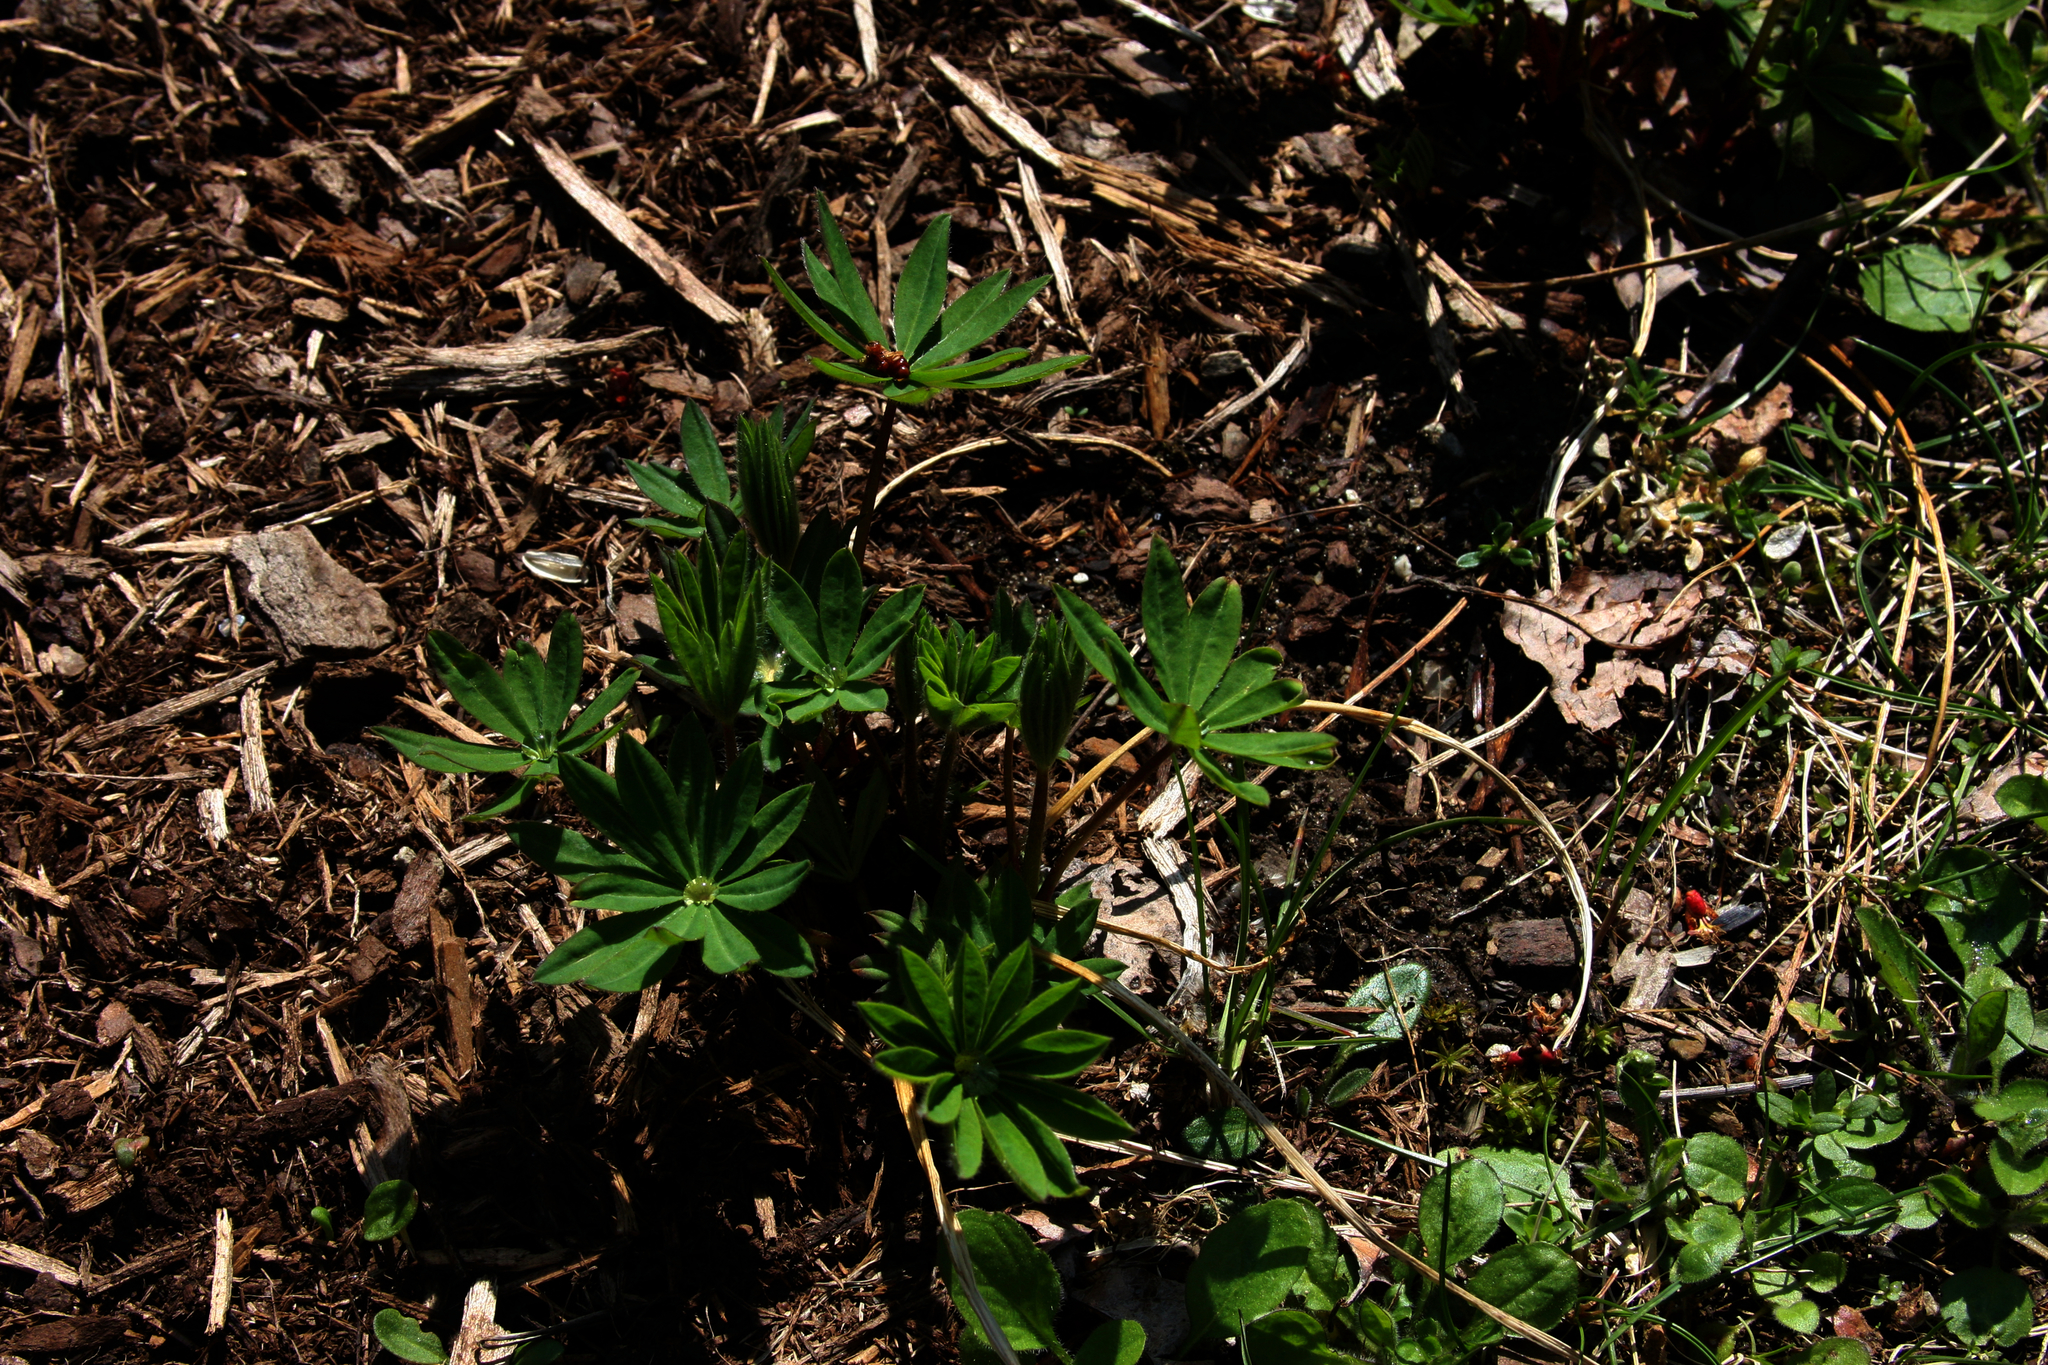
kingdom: Plantae
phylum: Tracheophyta
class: Magnoliopsida
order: Fabales
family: Fabaceae
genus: Lupinus
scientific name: Lupinus polyphyllus
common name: Garden lupin
